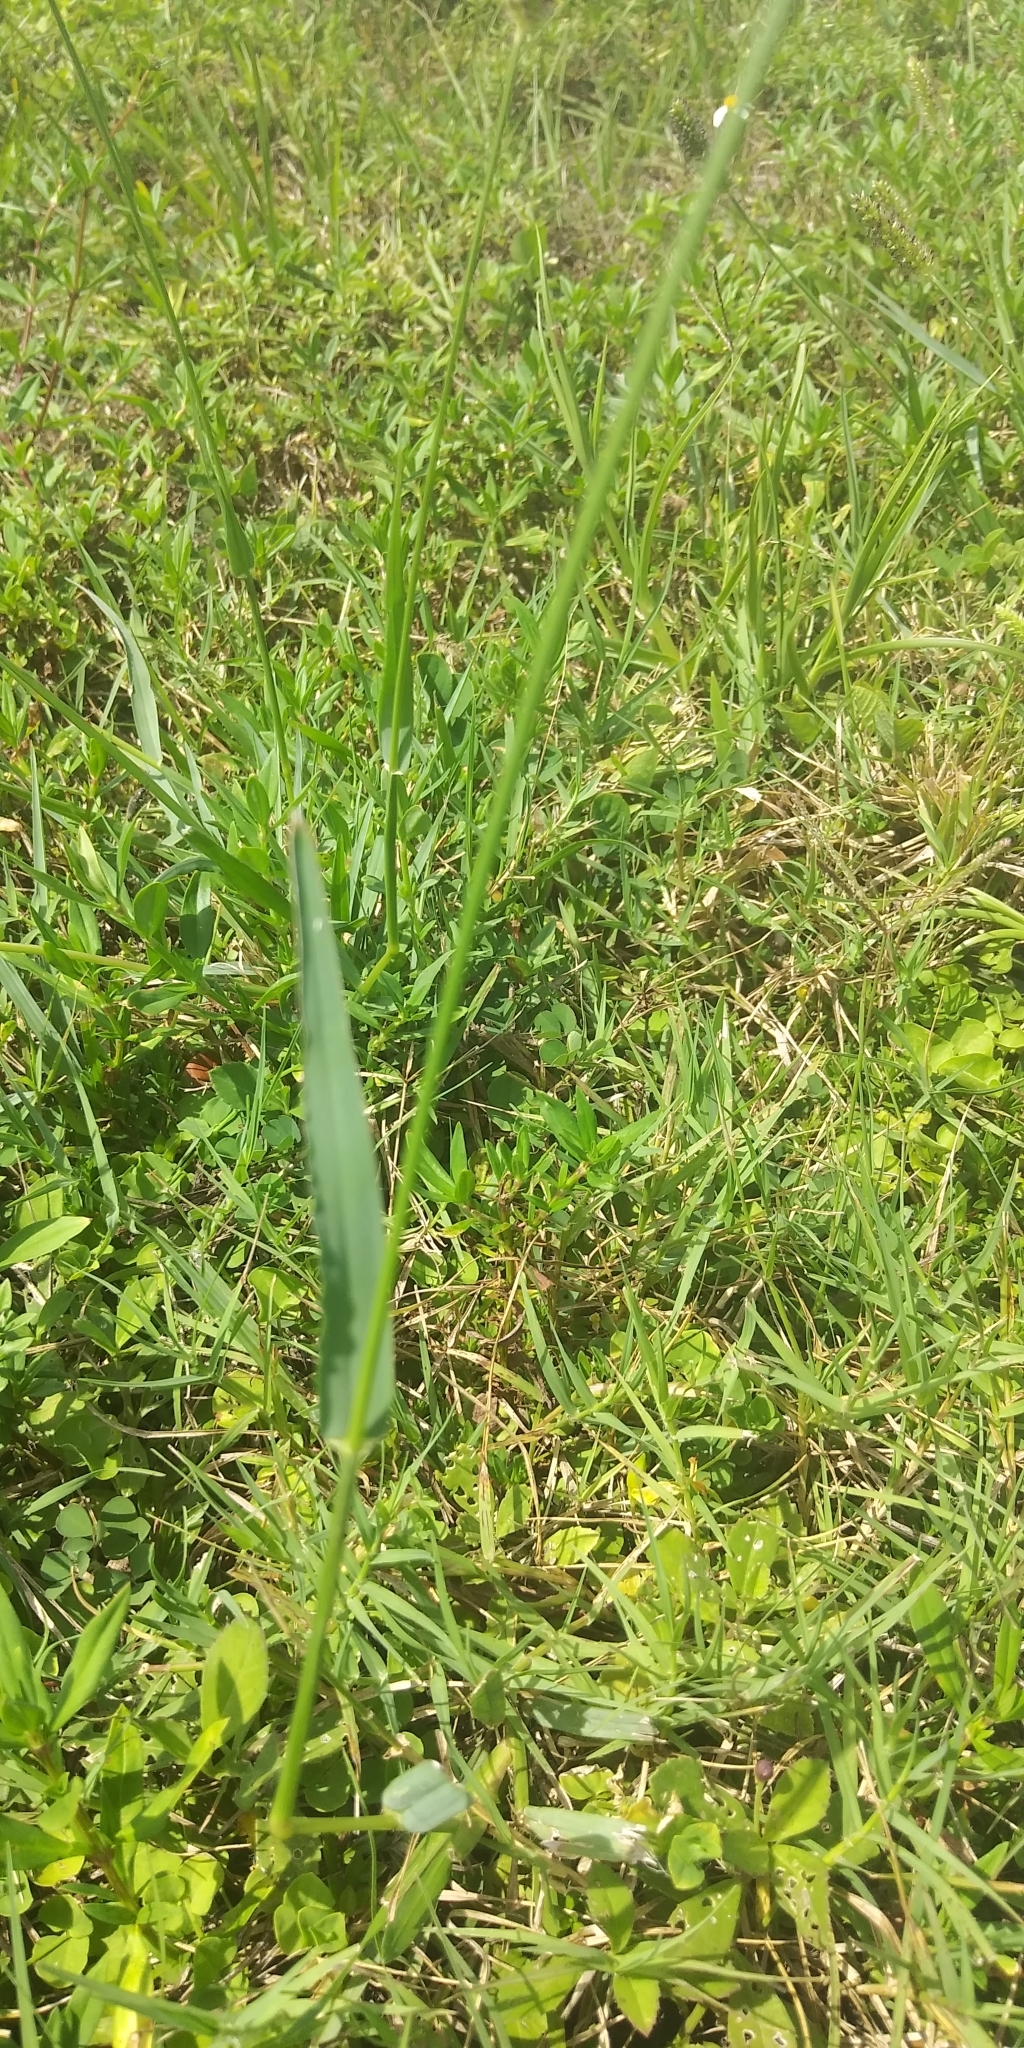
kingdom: Plantae
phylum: Tracheophyta
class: Liliopsida
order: Poales
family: Poaceae
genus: Setaria
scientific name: Setaria parviflora
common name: Knotroot bristle-grass
